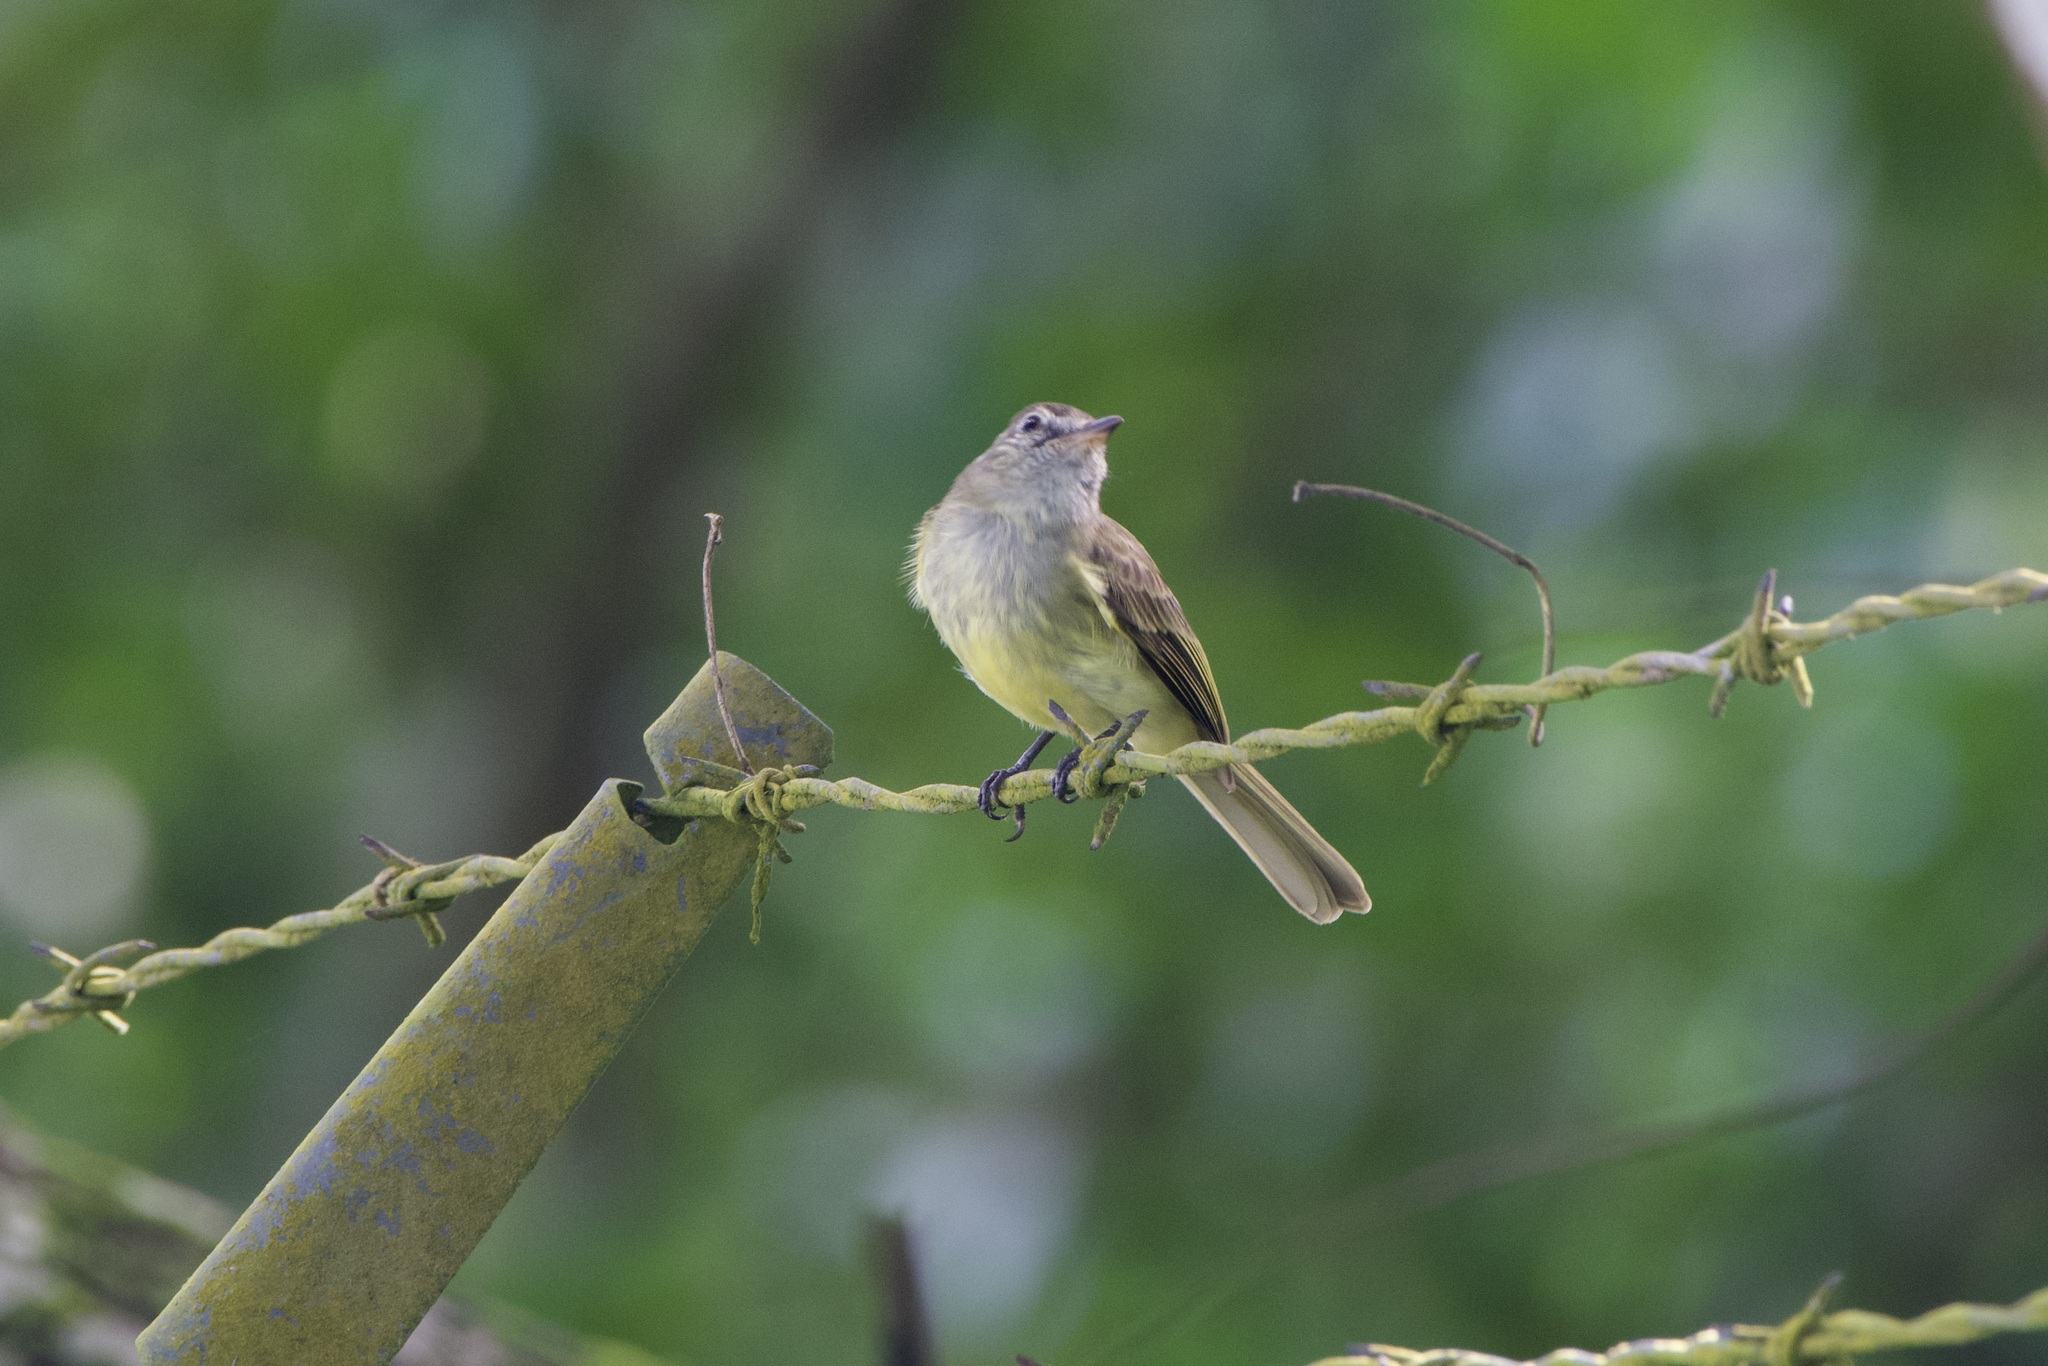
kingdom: Animalia
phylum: Chordata
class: Aves
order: Passeriformes
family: Tyrannidae
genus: Myiopagis
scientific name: Myiopagis viridicata
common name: Greenish elaenia
